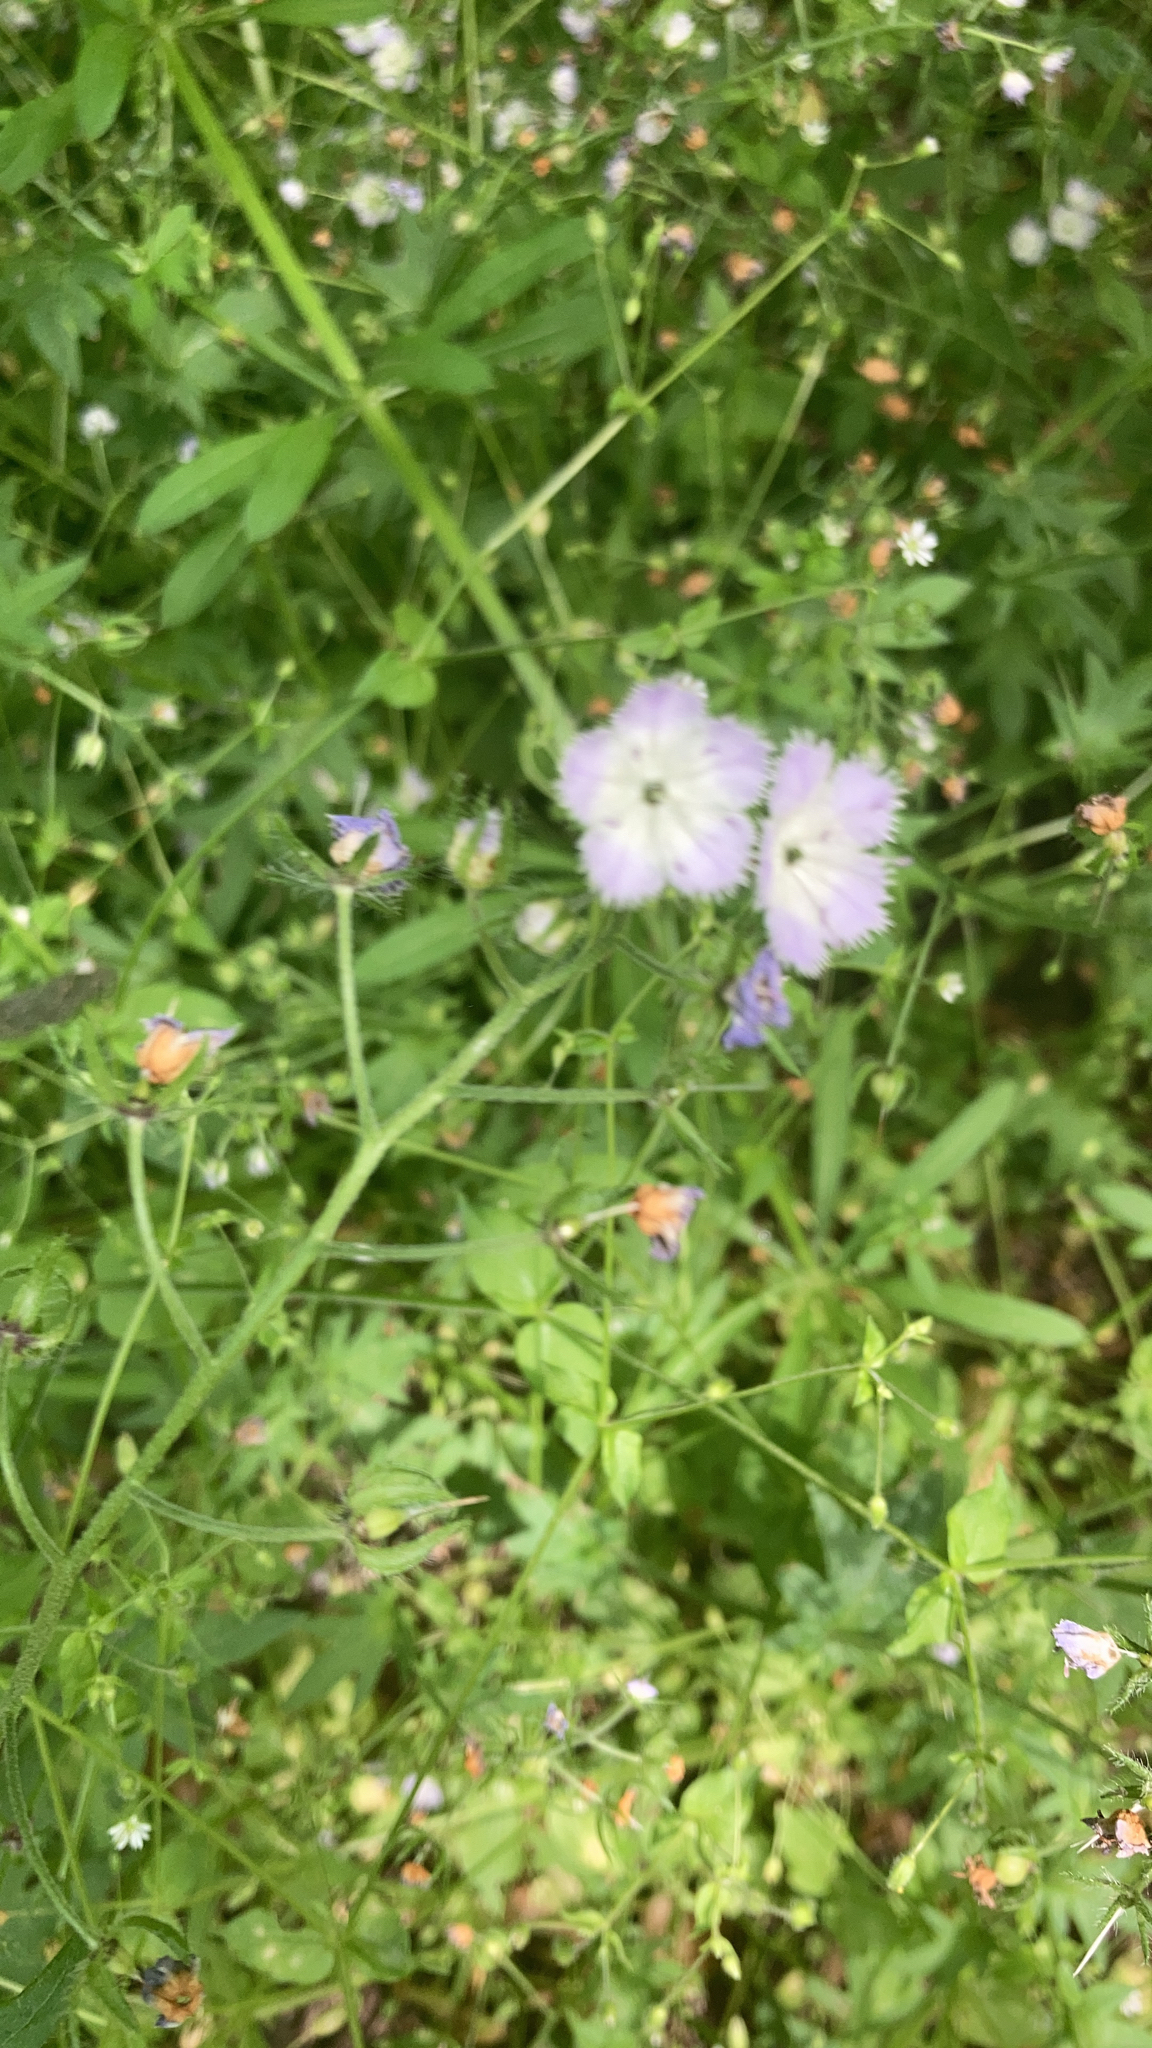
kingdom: Plantae
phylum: Tracheophyta
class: Magnoliopsida
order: Boraginales
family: Hydrophyllaceae
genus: Phacelia
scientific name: Phacelia purshii
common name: Miami-mist
